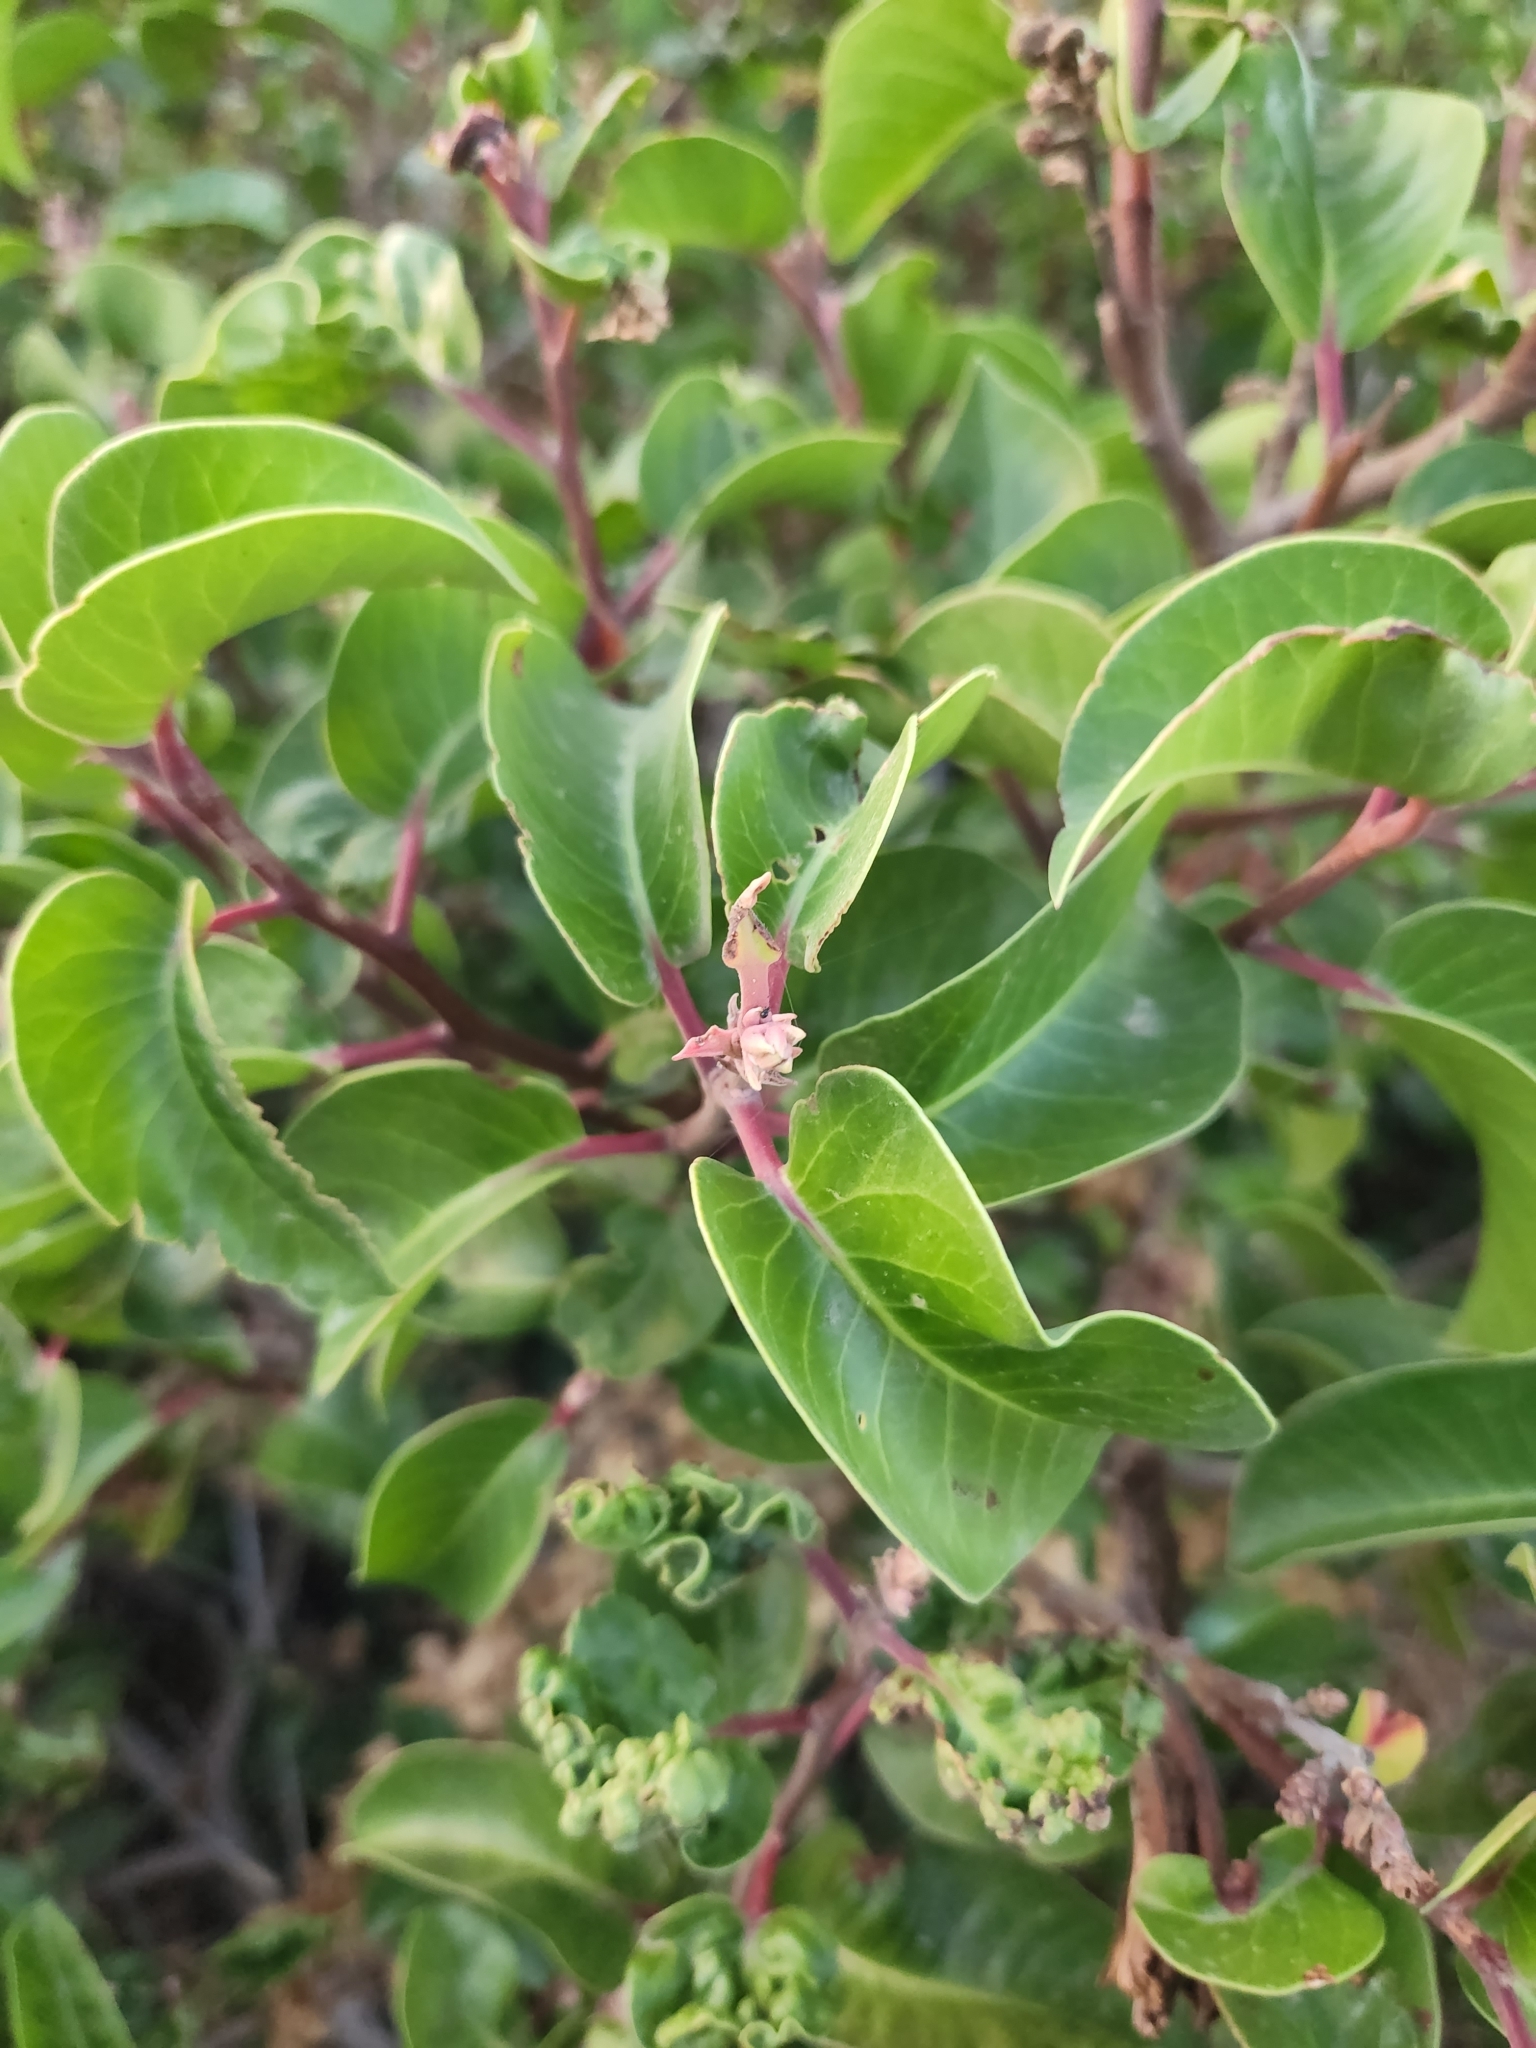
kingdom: Plantae
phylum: Tracheophyta
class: Magnoliopsida
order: Sapindales
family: Anacardiaceae
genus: Rhus
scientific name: Rhus ovata
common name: Sugar sumac
